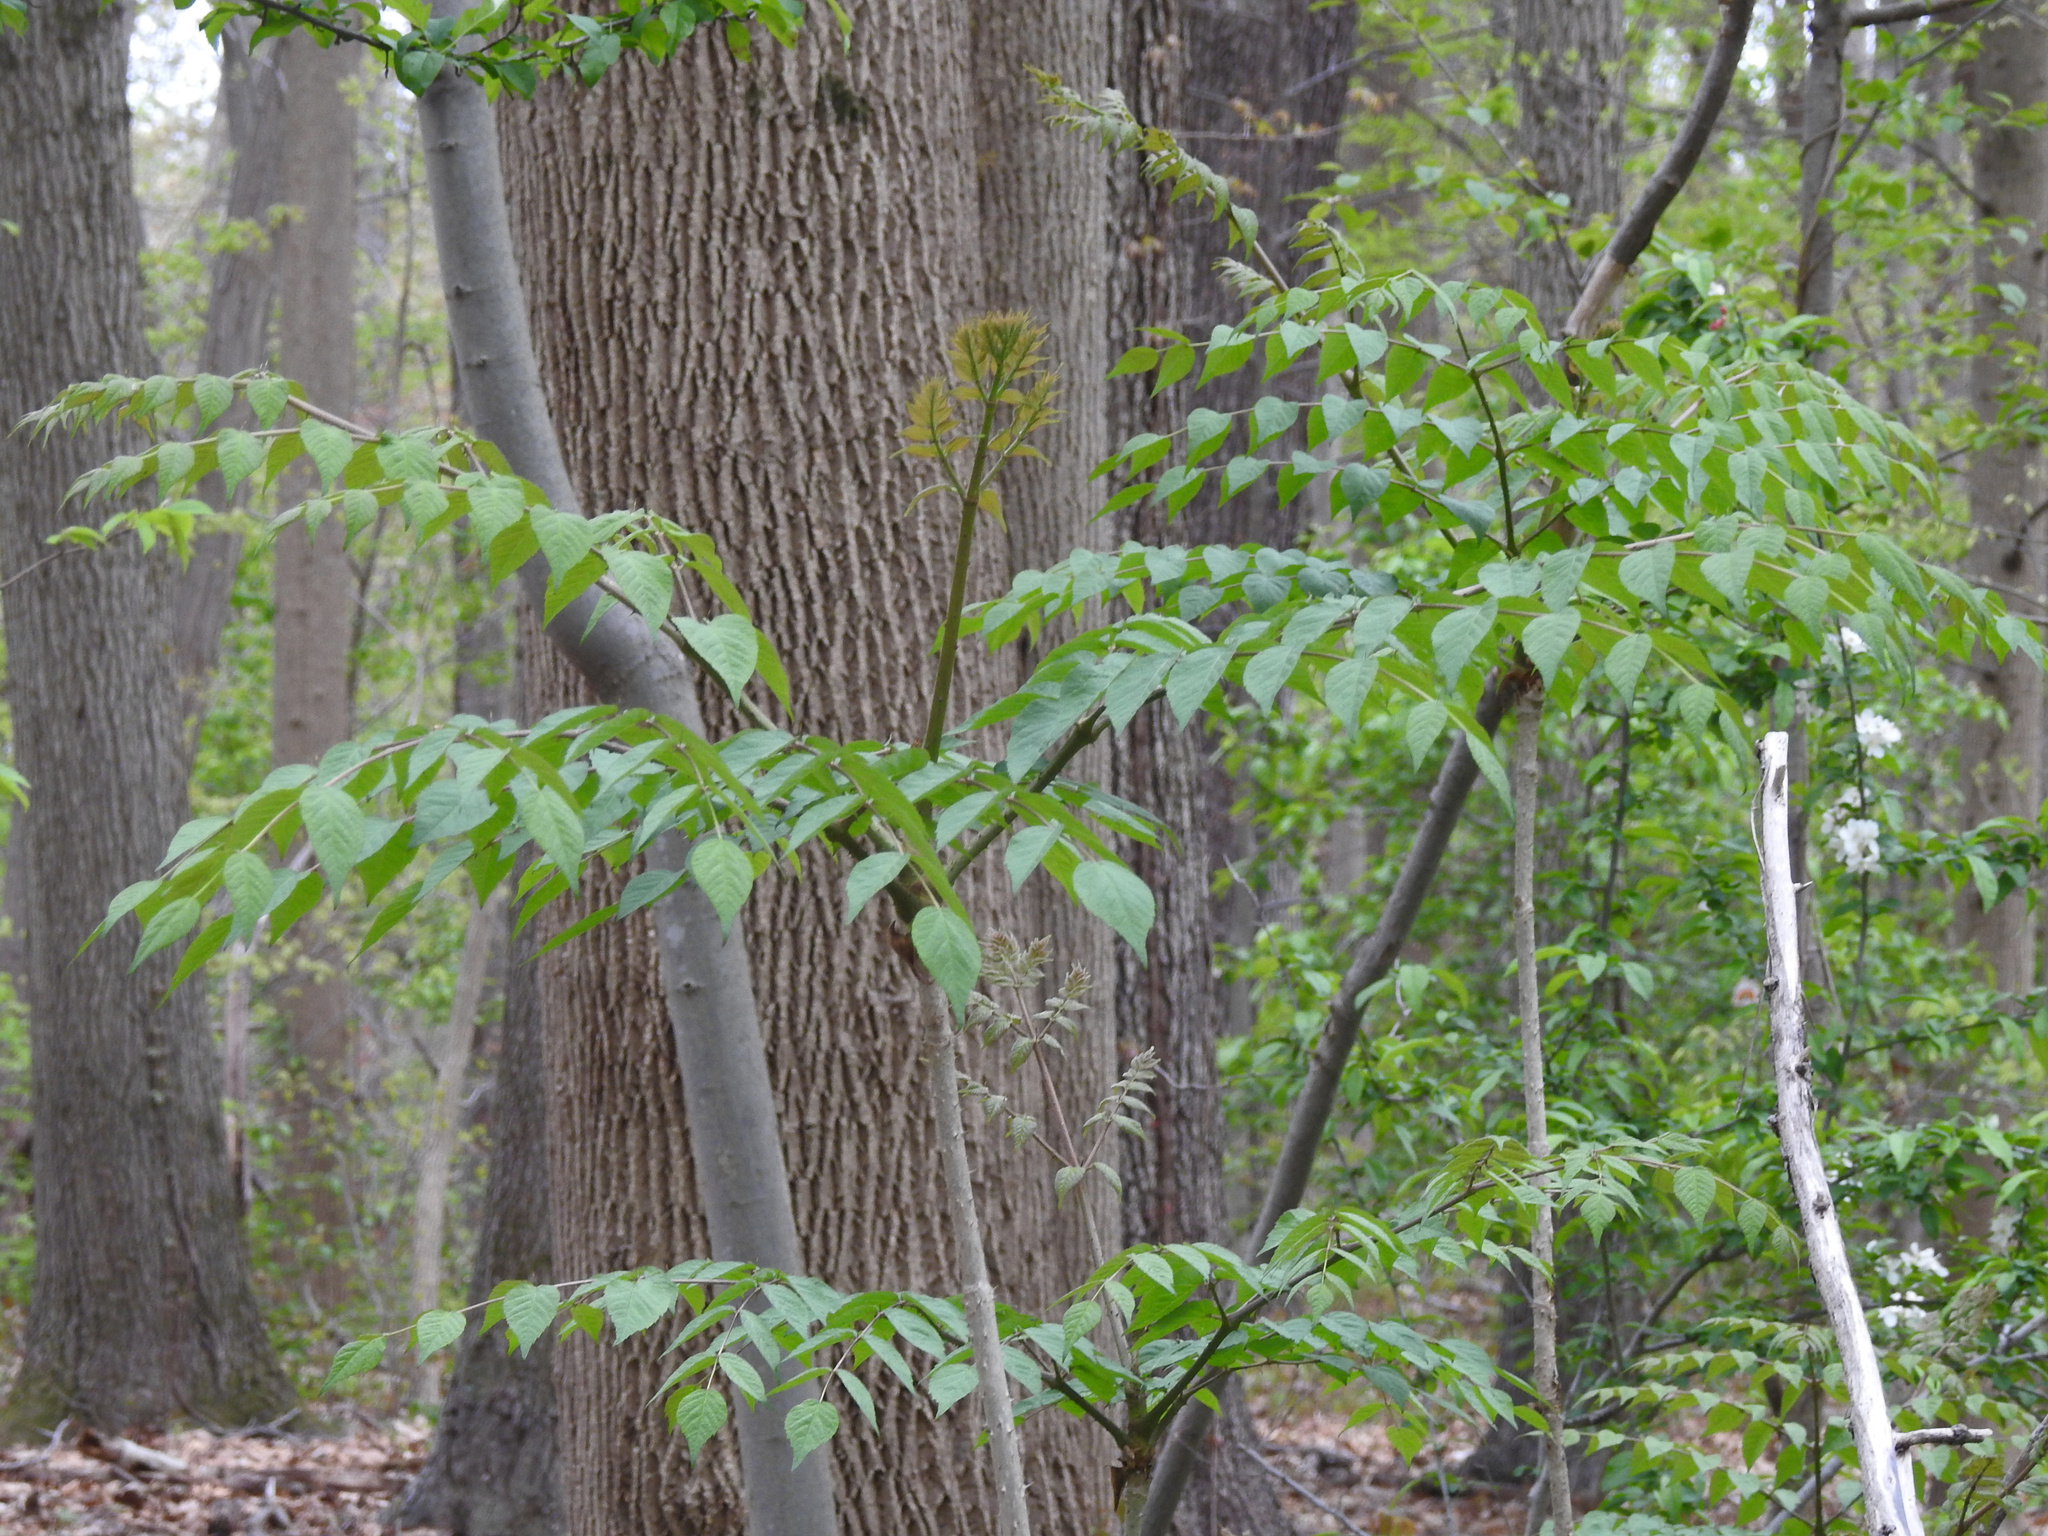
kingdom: Plantae
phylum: Tracheophyta
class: Magnoliopsida
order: Apiales
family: Araliaceae
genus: Aralia
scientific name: Aralia elata
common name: Japanese angelica-tree
